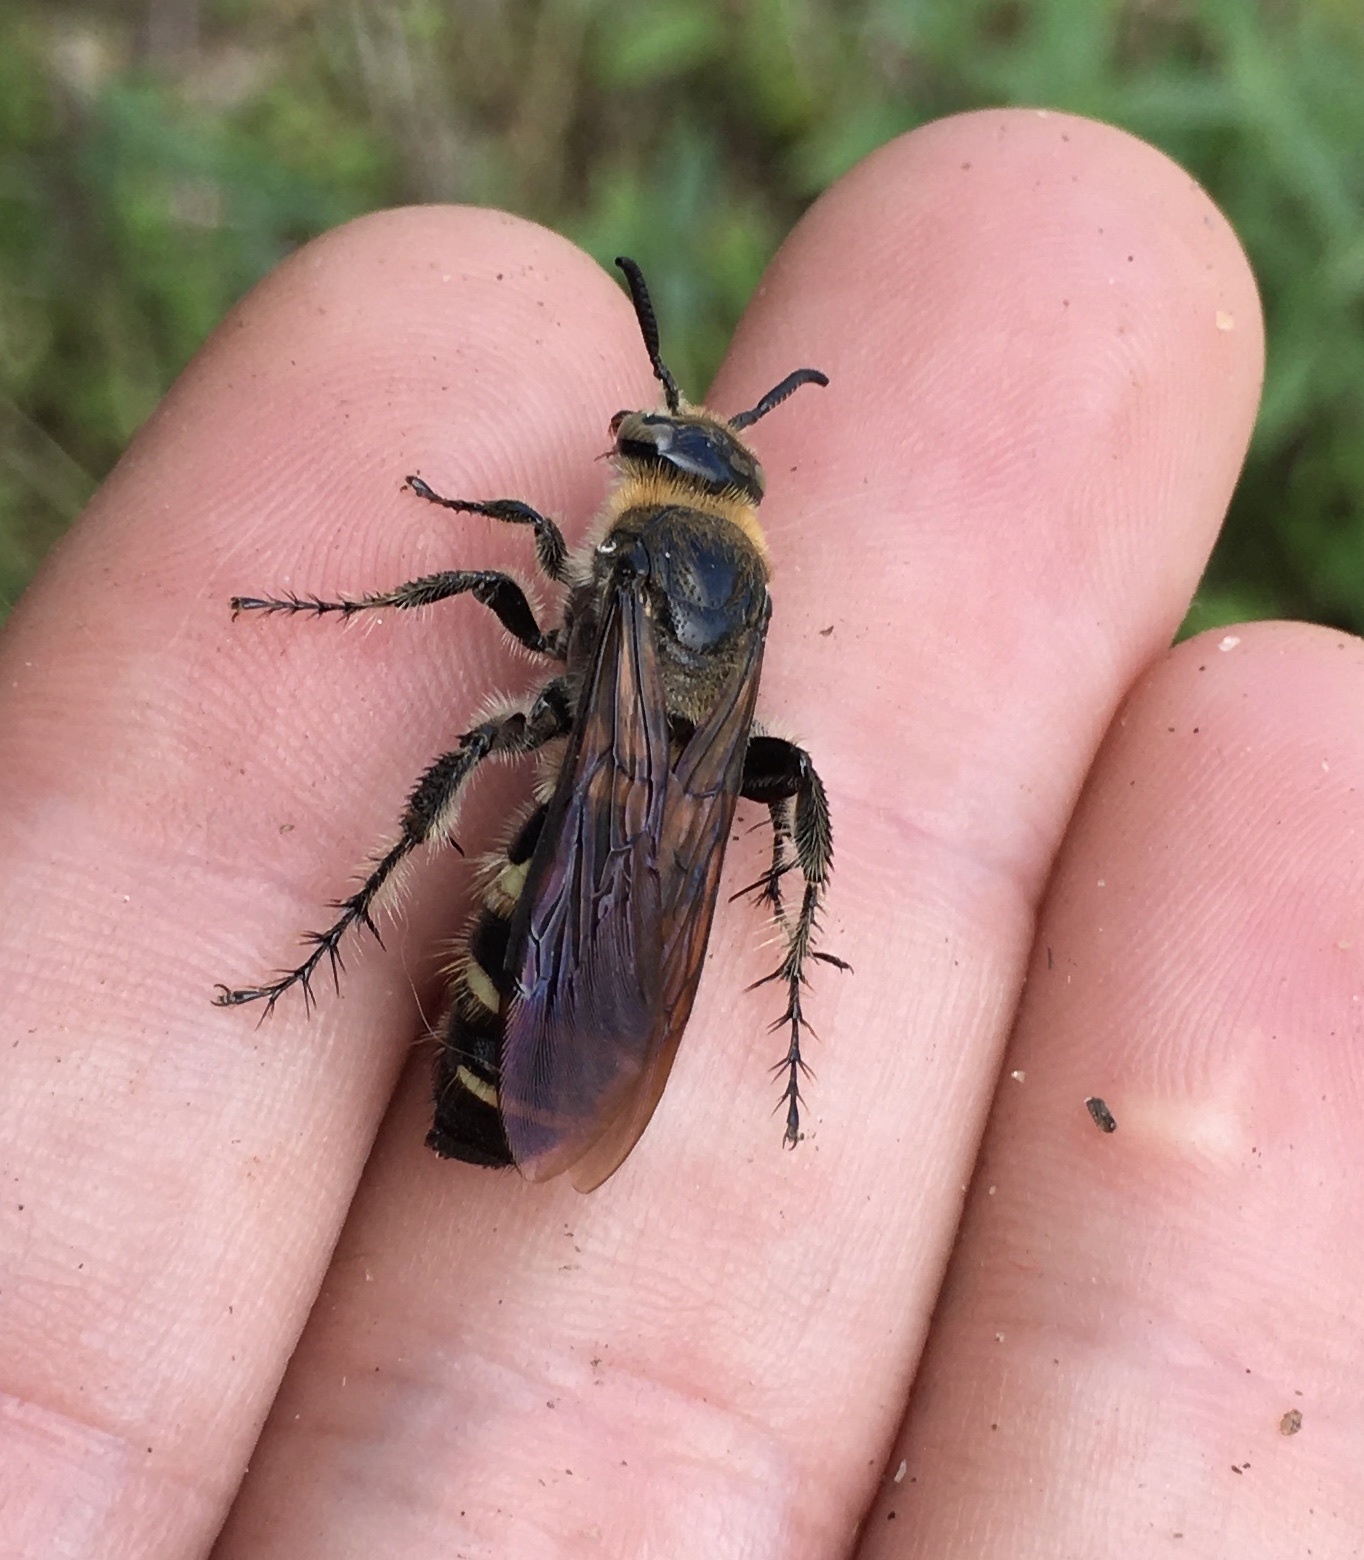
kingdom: Animalia
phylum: Arthropoda
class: Insecta
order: Hymenoptera
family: Scoliidae
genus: Dielis
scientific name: Dielis
